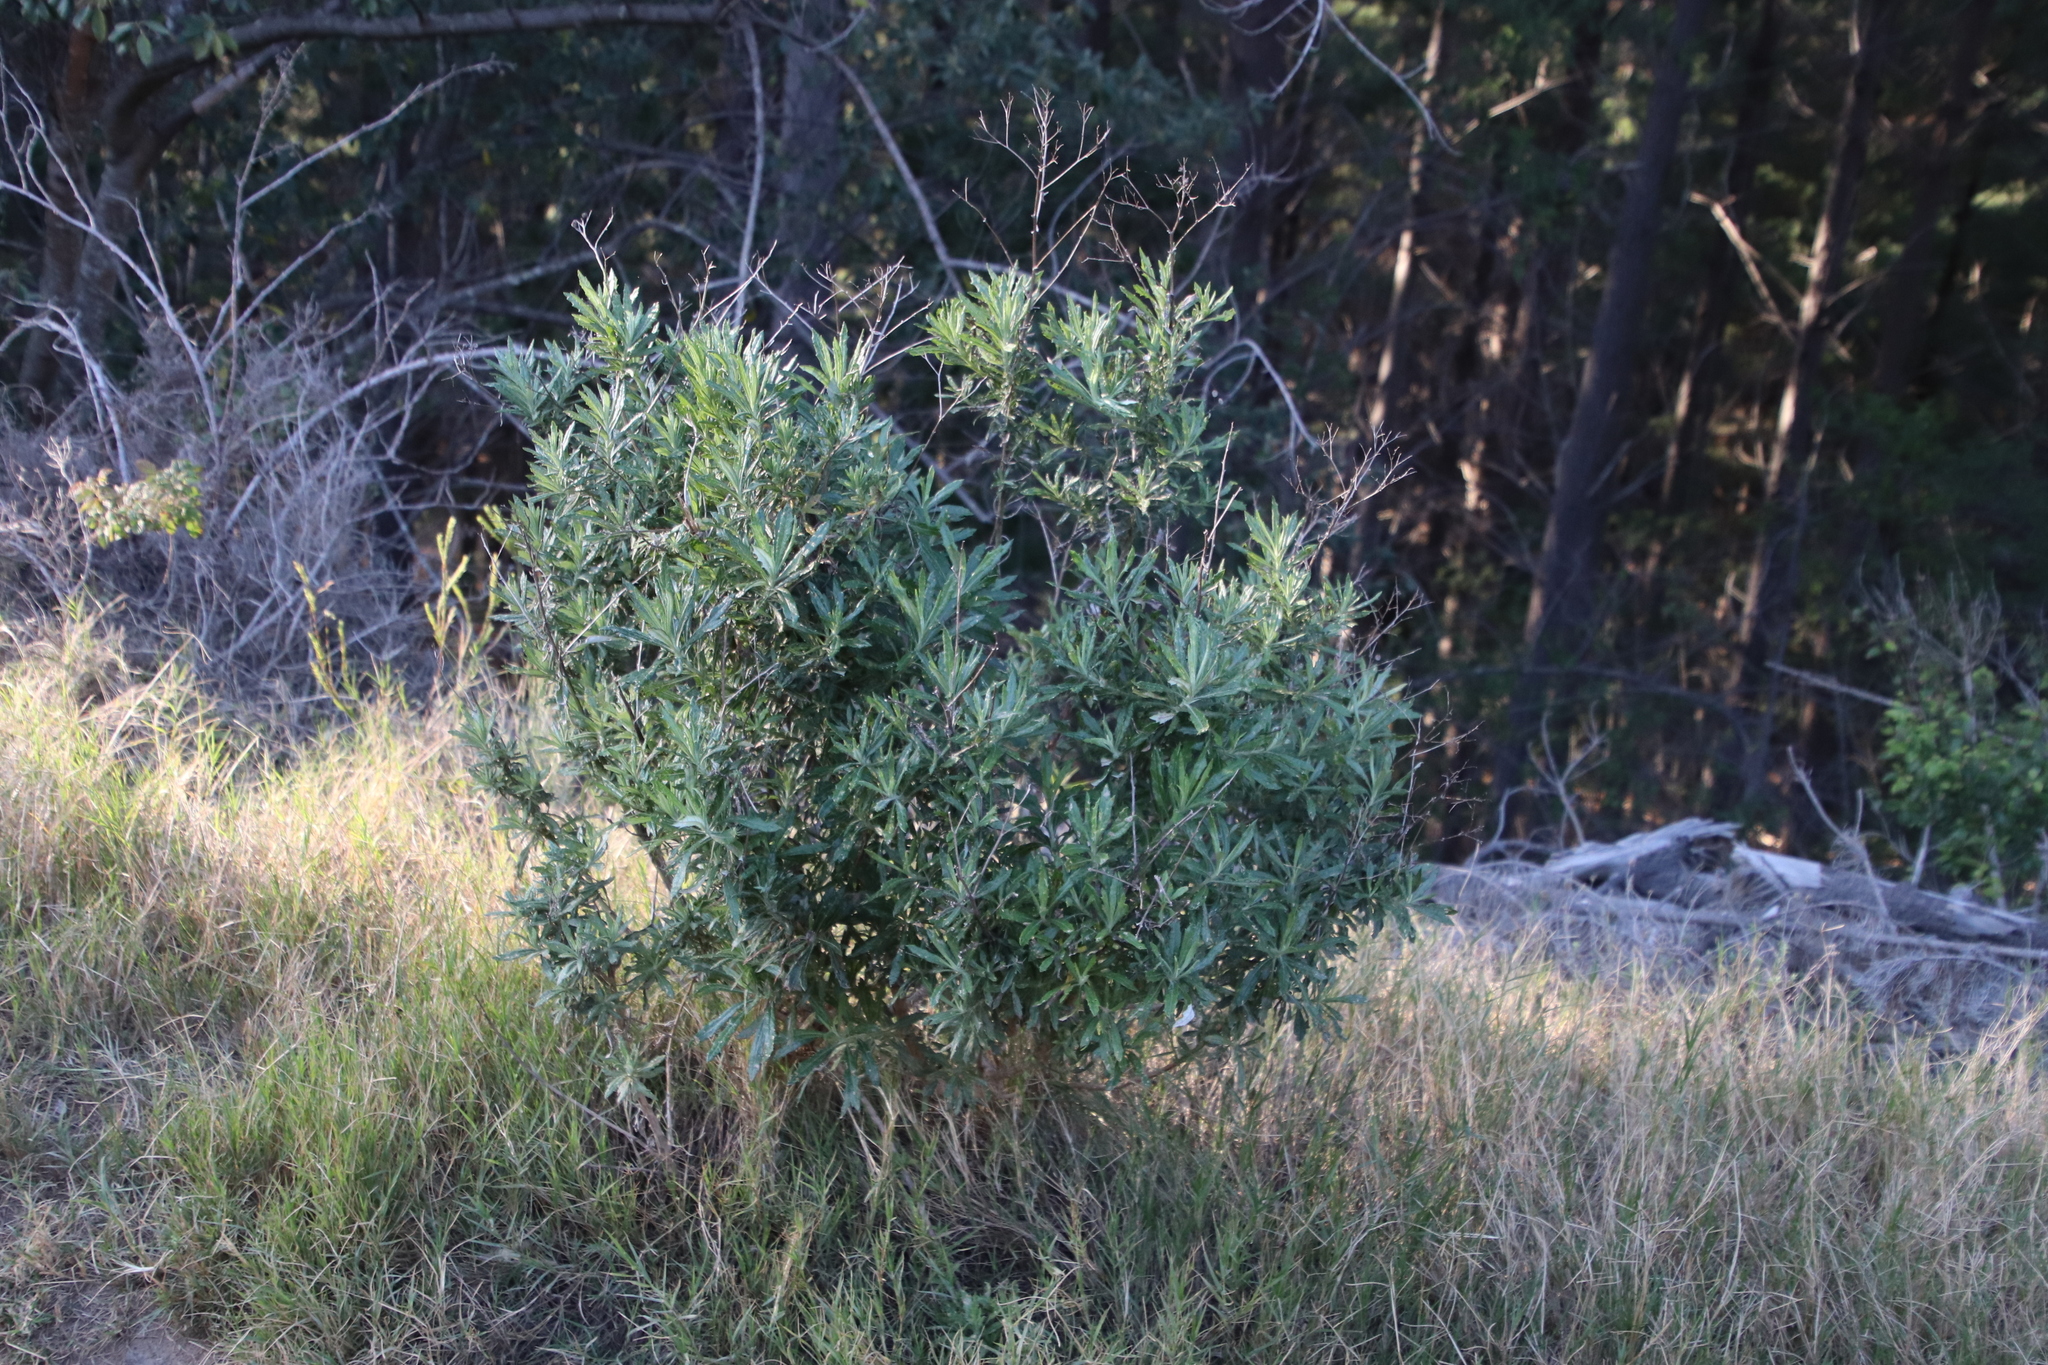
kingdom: Plantae
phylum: Tracheophyta
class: Magnoliopsida
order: Asterales
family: Asteraceae
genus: Senecio
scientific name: Senecio pterophorus
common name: Shoddy ragwort
